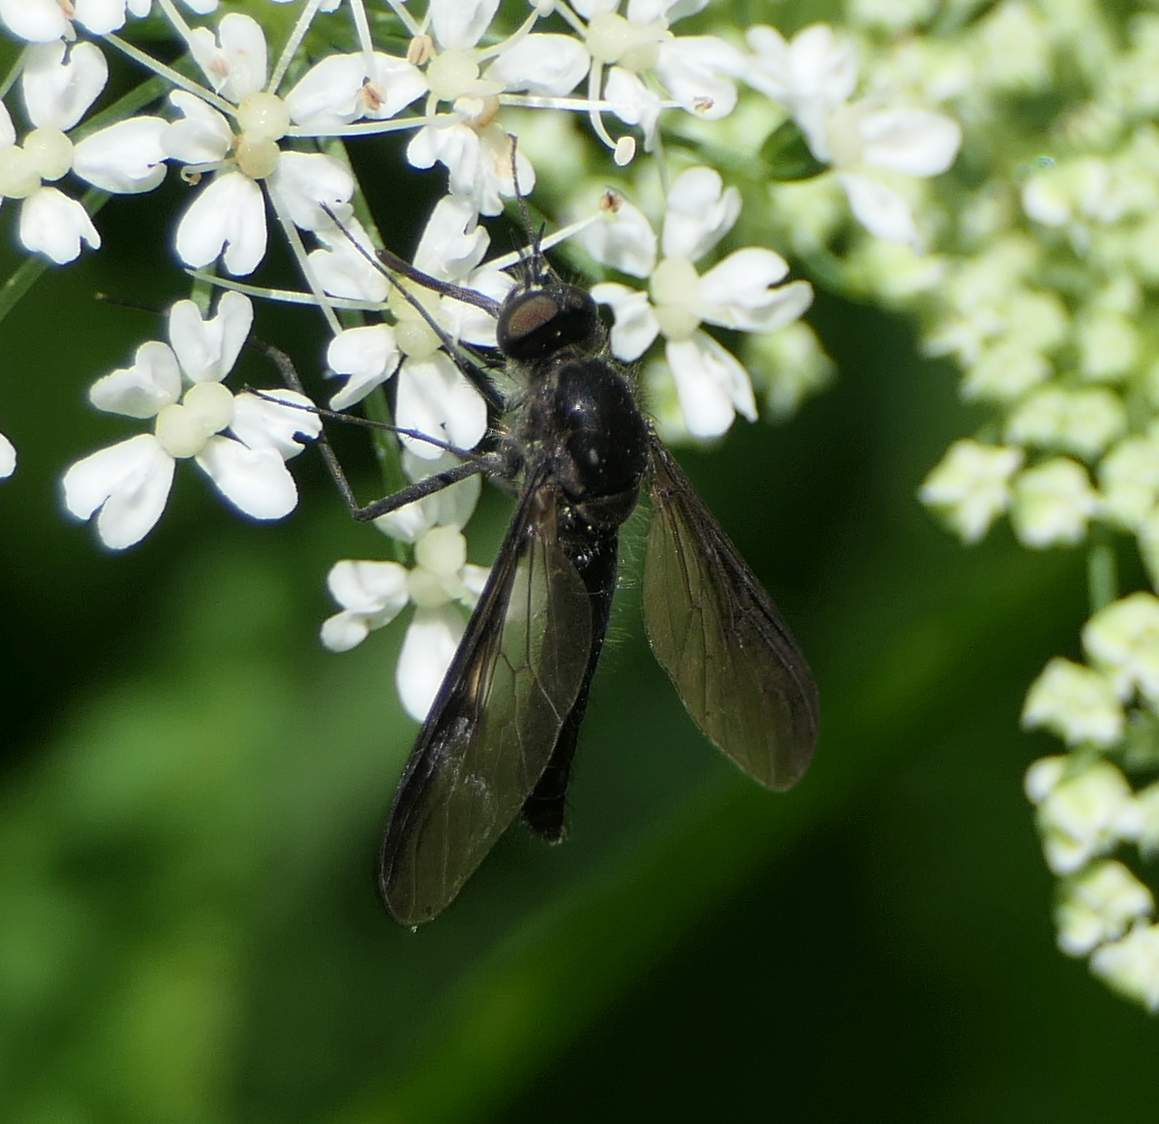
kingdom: Animalia
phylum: Arthropoda
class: Insecta
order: Diptera
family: Bombyliidae
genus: Thevenetimyia
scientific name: Thevenetimyia funestus
